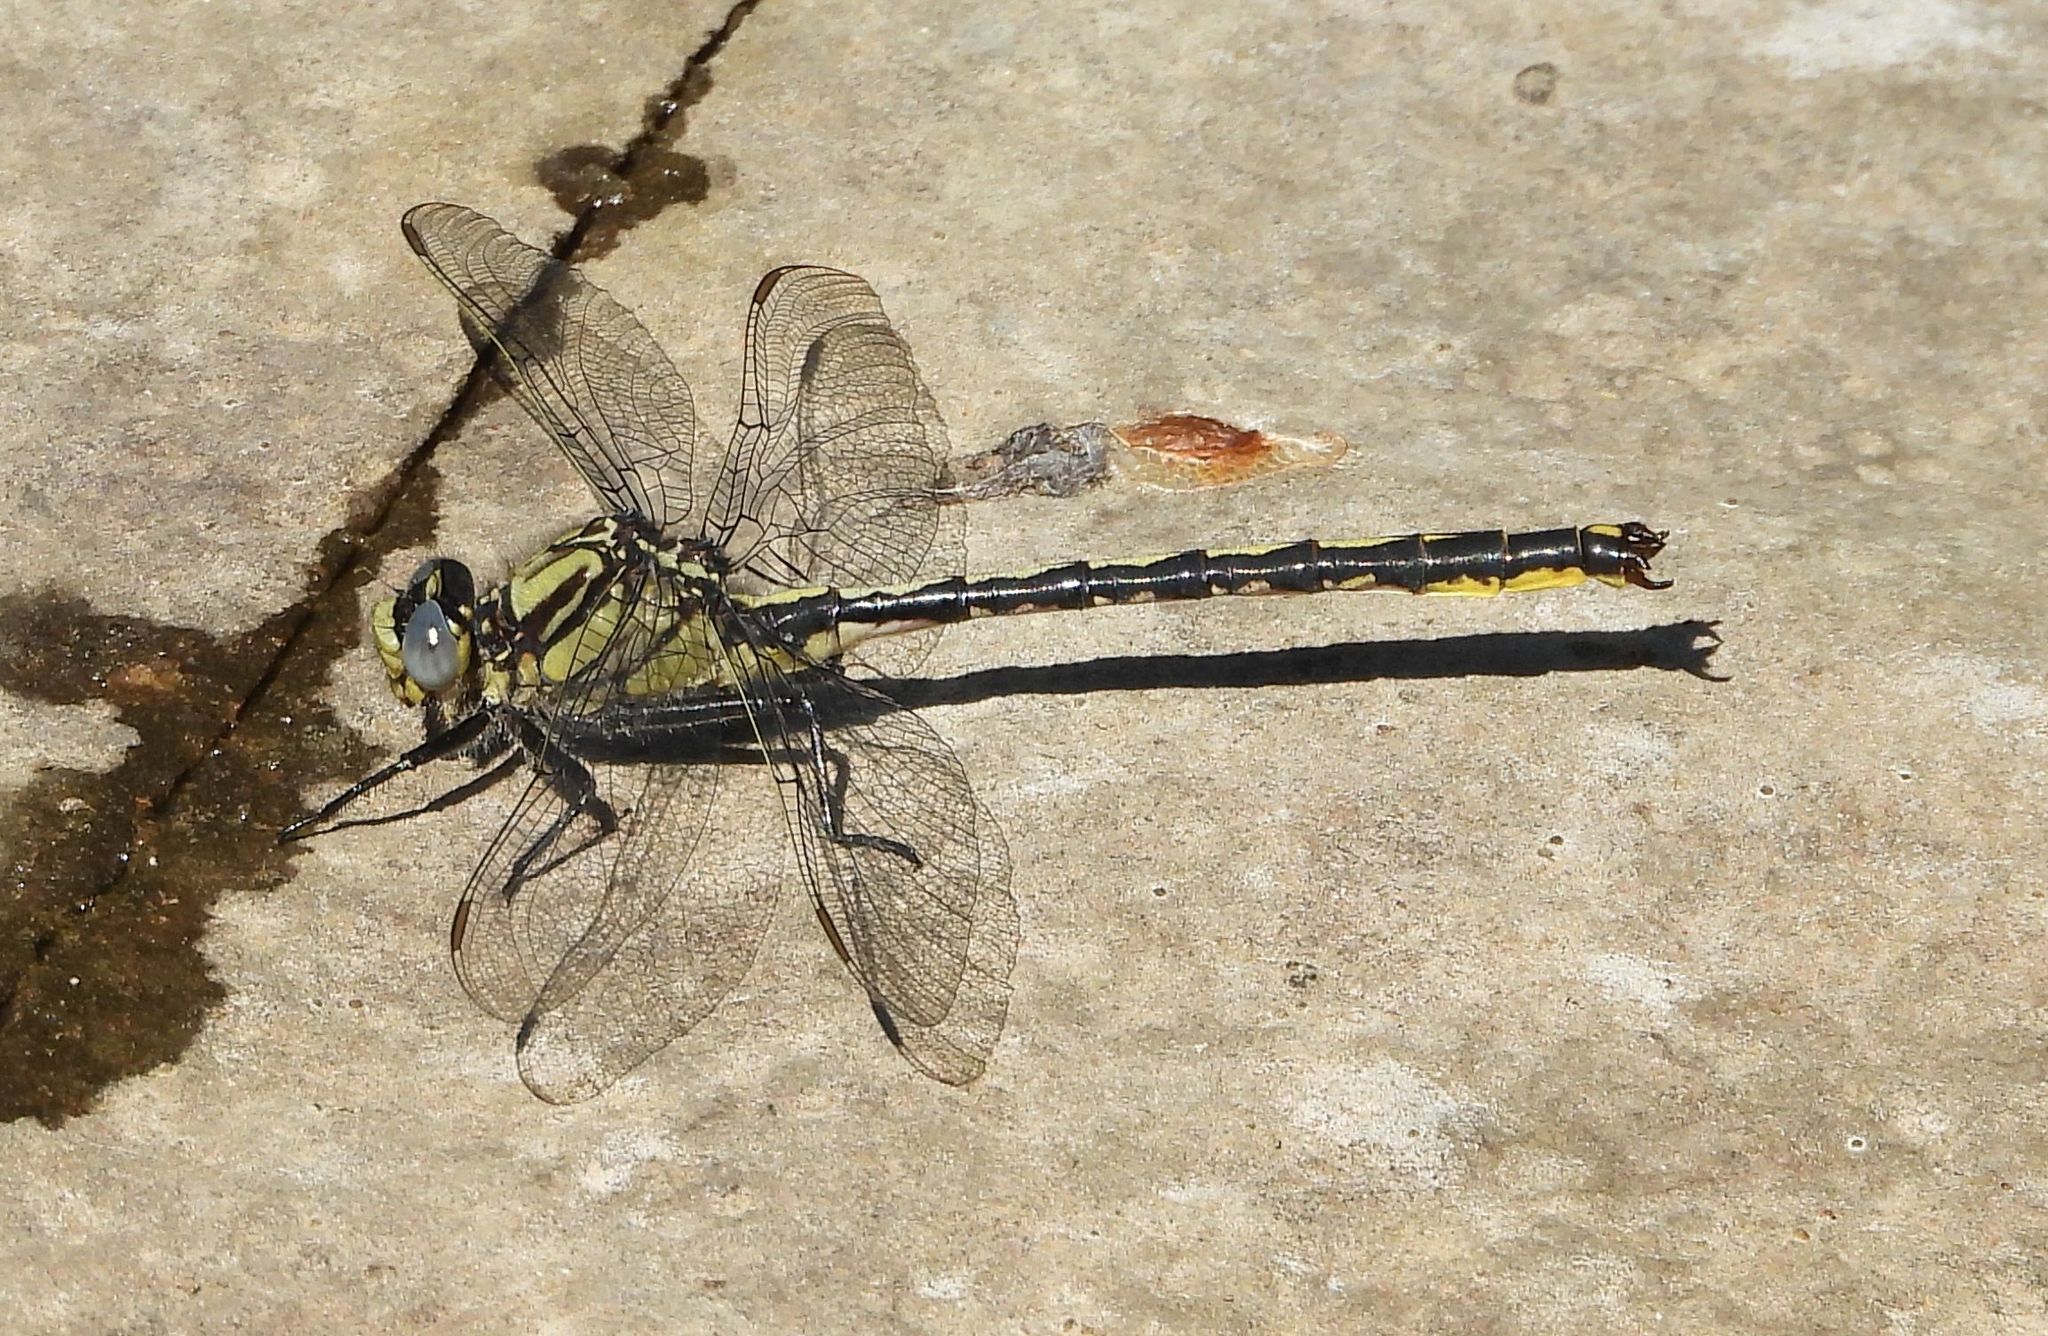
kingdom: Animalia
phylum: Arthropoda
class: Insecta
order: Odonata
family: Gomphidae
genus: Arigomphus
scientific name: Arigomphus cornutus
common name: Horned clubtail
